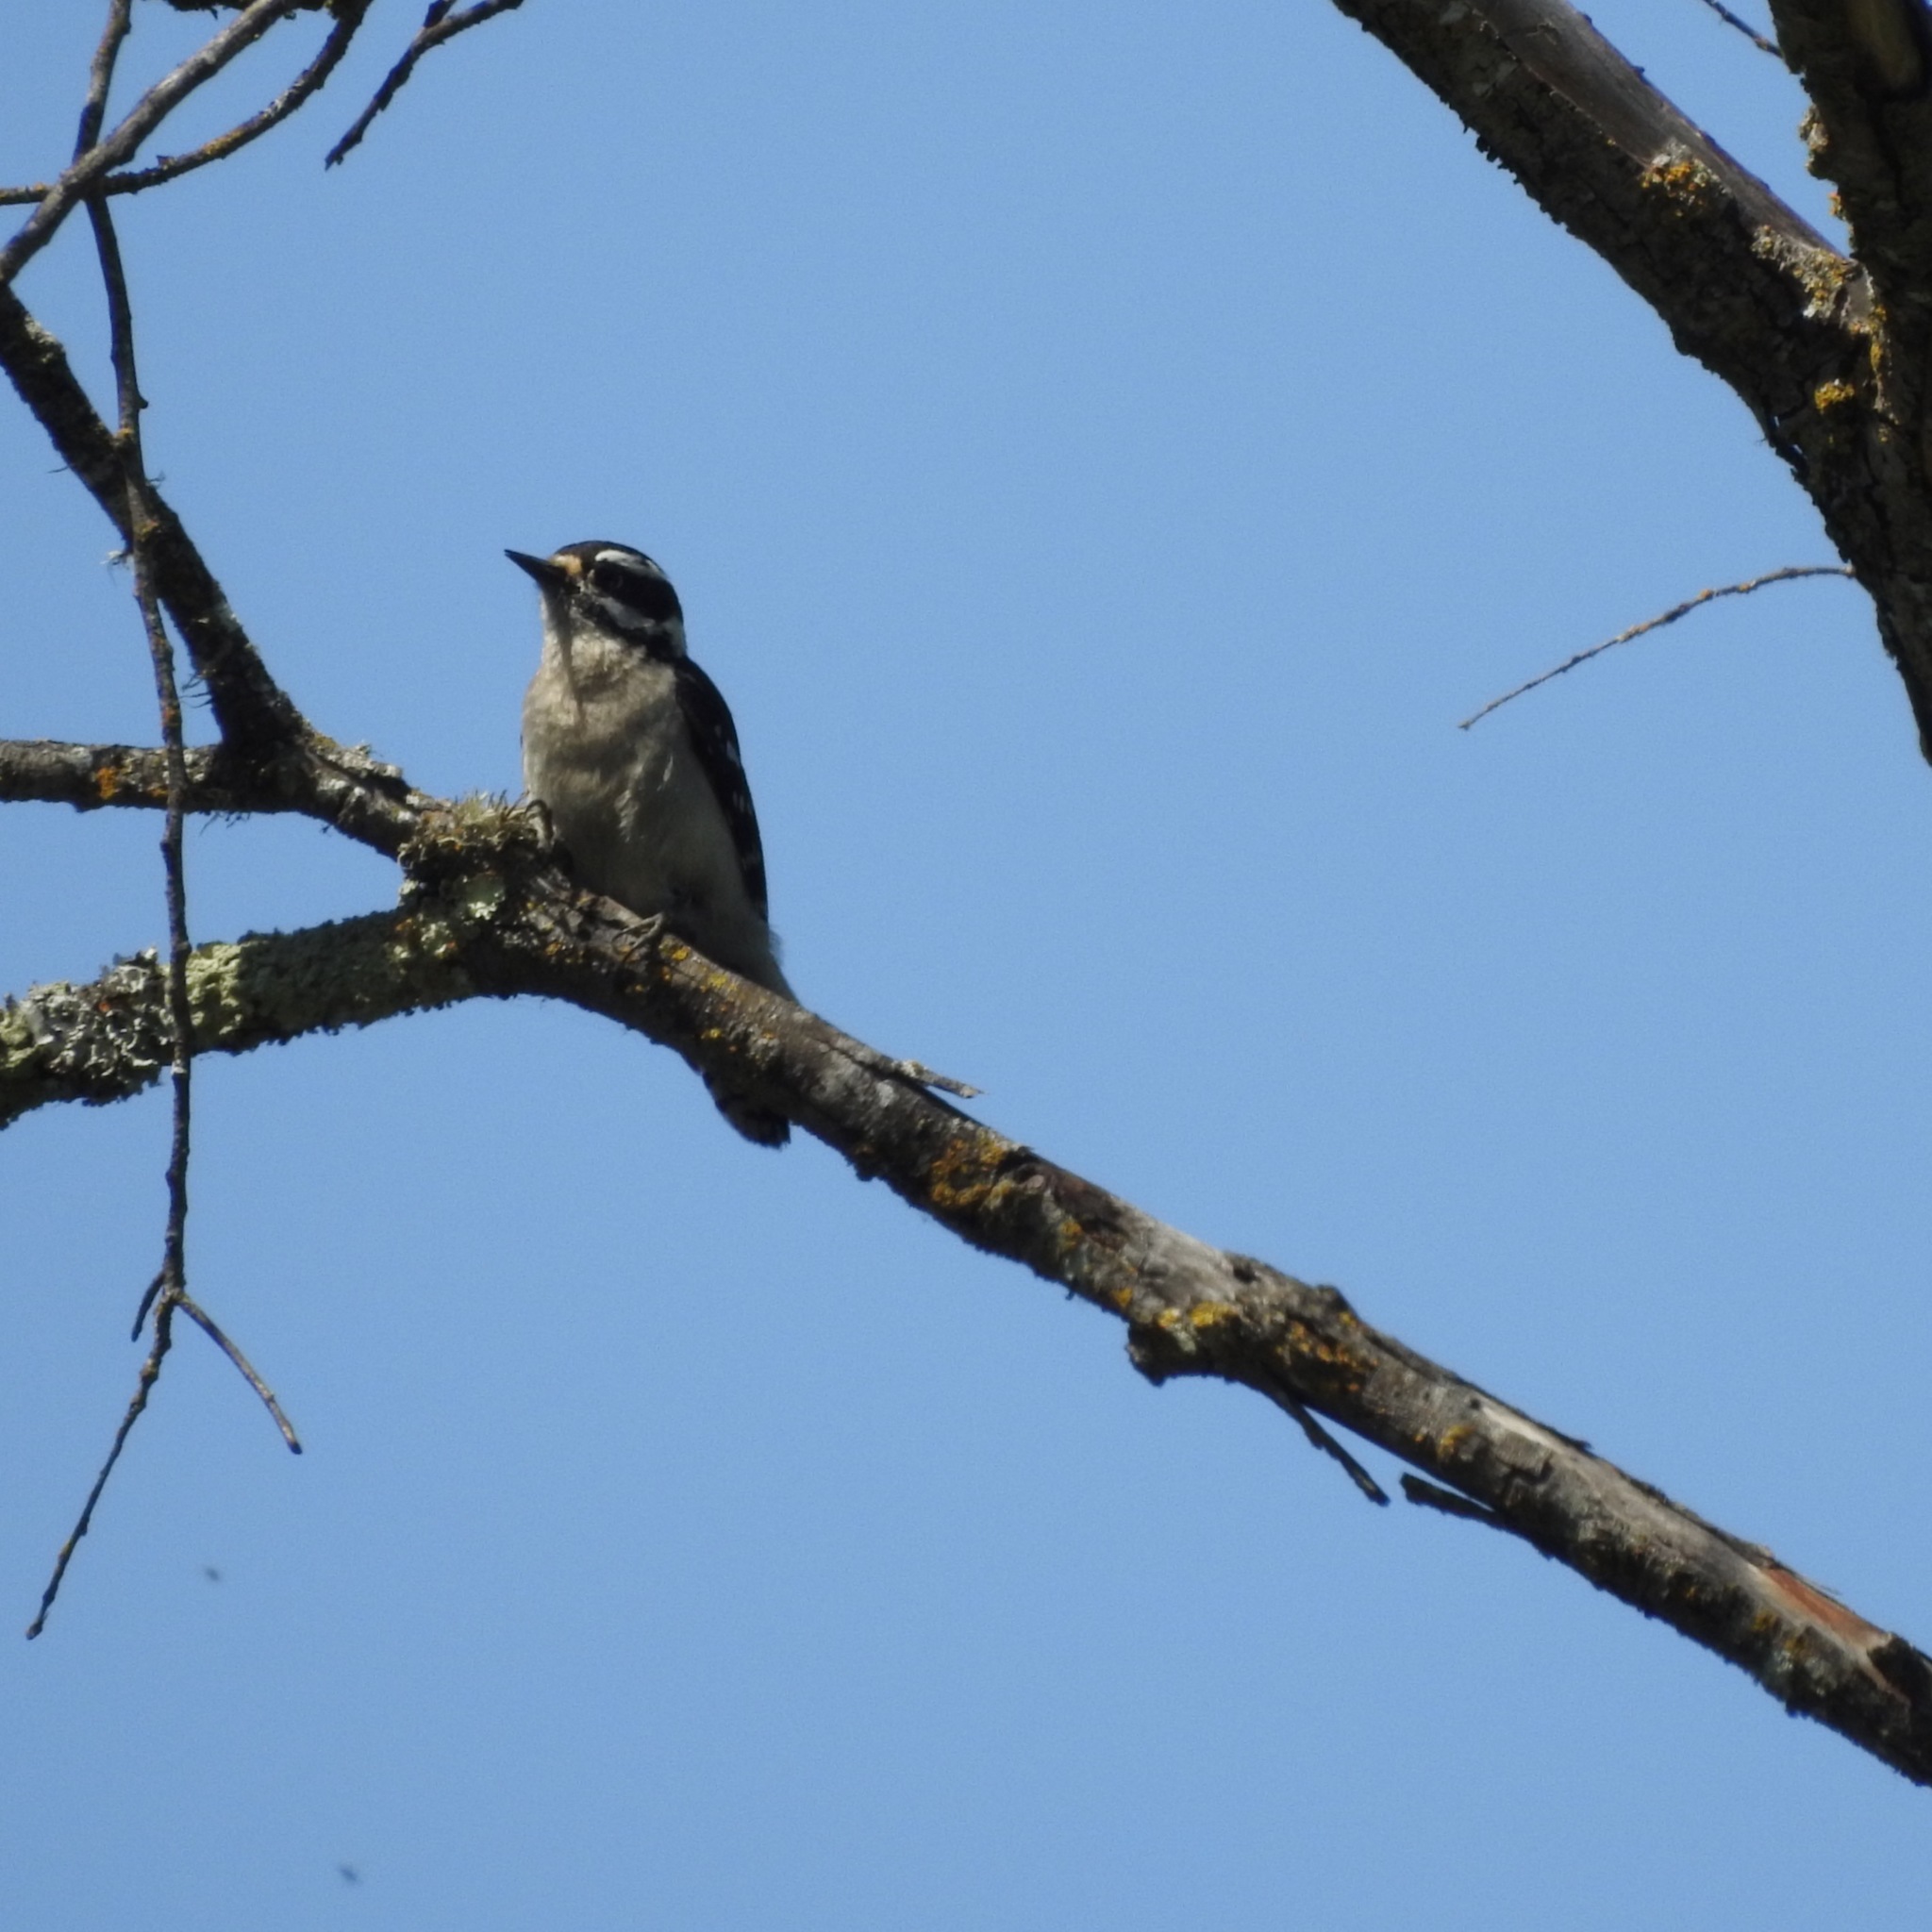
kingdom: Animalia
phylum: Chordata
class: Aves
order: Piciformes
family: Picidae
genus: Dryobates
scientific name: Dryobates pubescens
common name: Downy woodpecker
